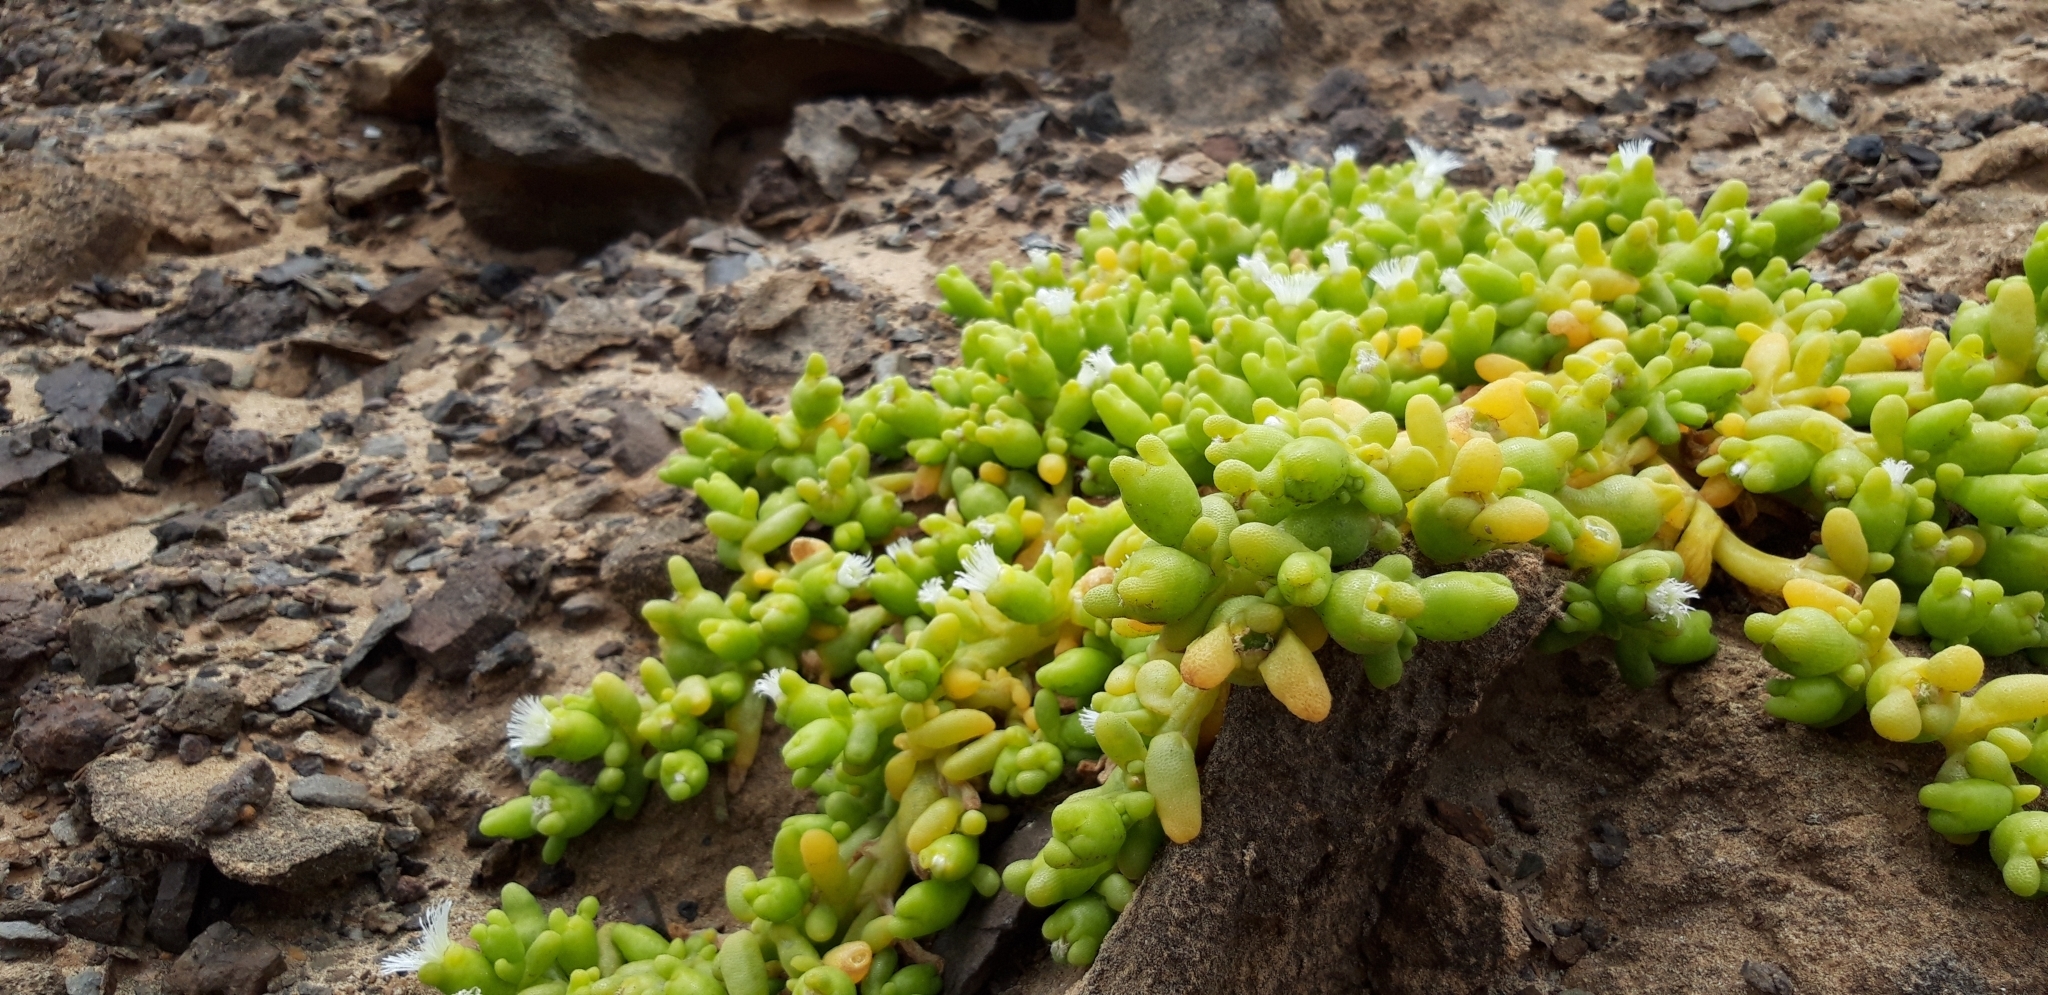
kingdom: Plantae
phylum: Tracheophyta
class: Magnoliopsida
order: Caryophyllales
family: Aizoaceae
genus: Mesembryanthemum
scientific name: Mesembryanthemum cryptanthum
